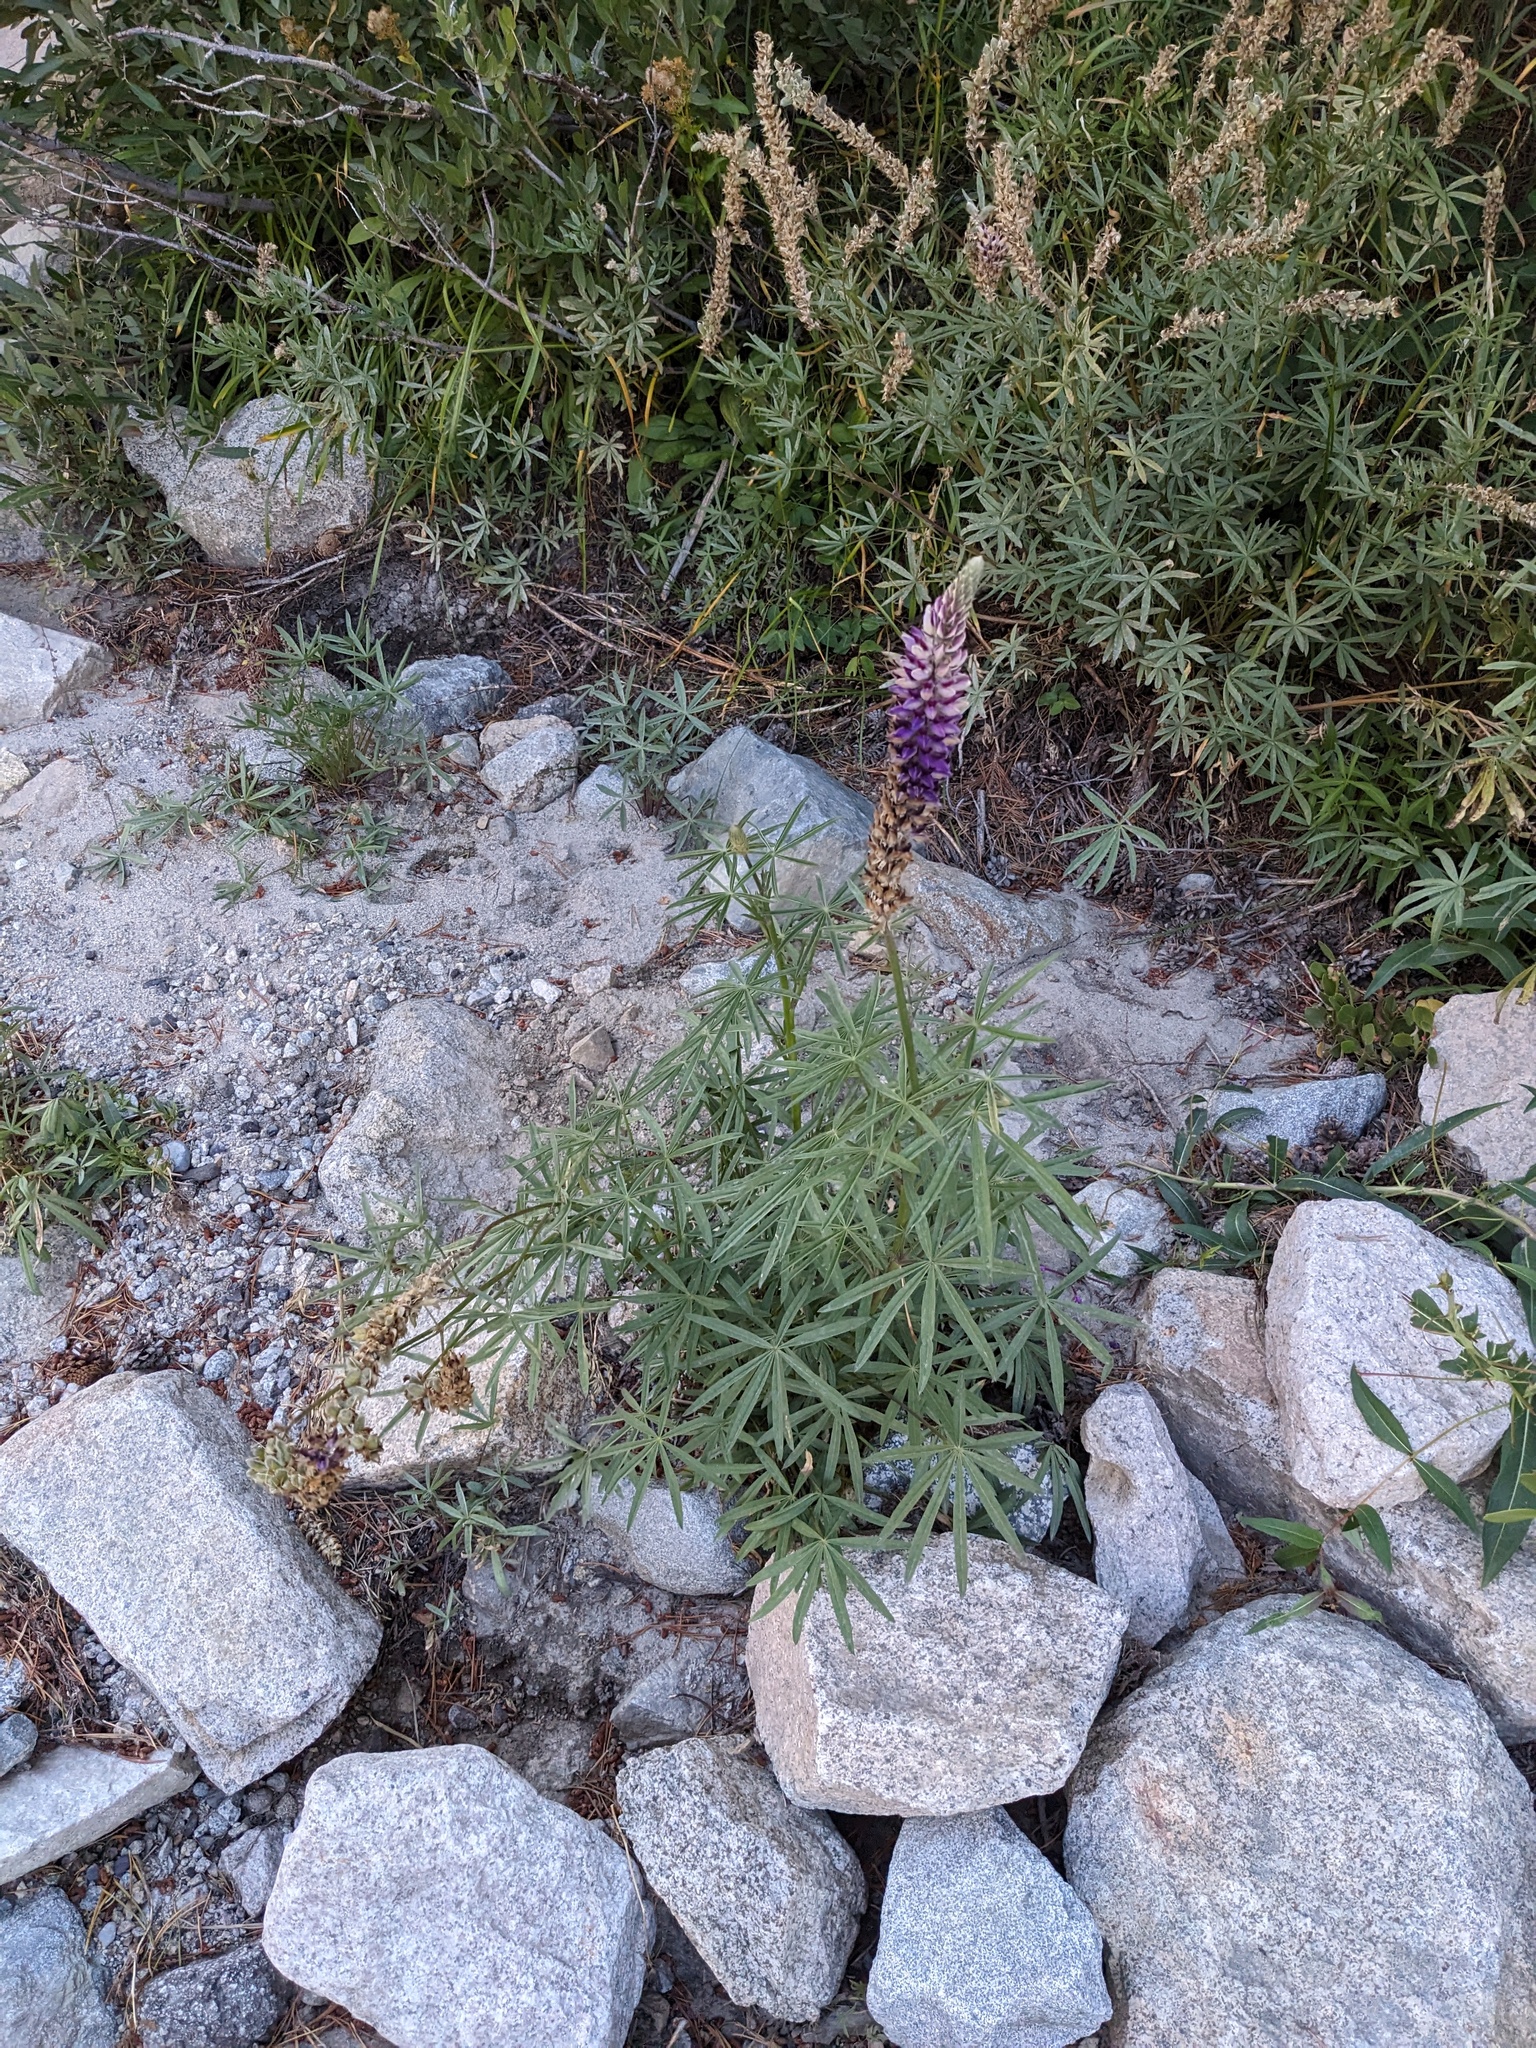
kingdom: Plantae
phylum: Tracheophyta
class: Magnoliopsida
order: Fabales
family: Fabaceae
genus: Lupinus
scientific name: Lupinus pratensis
